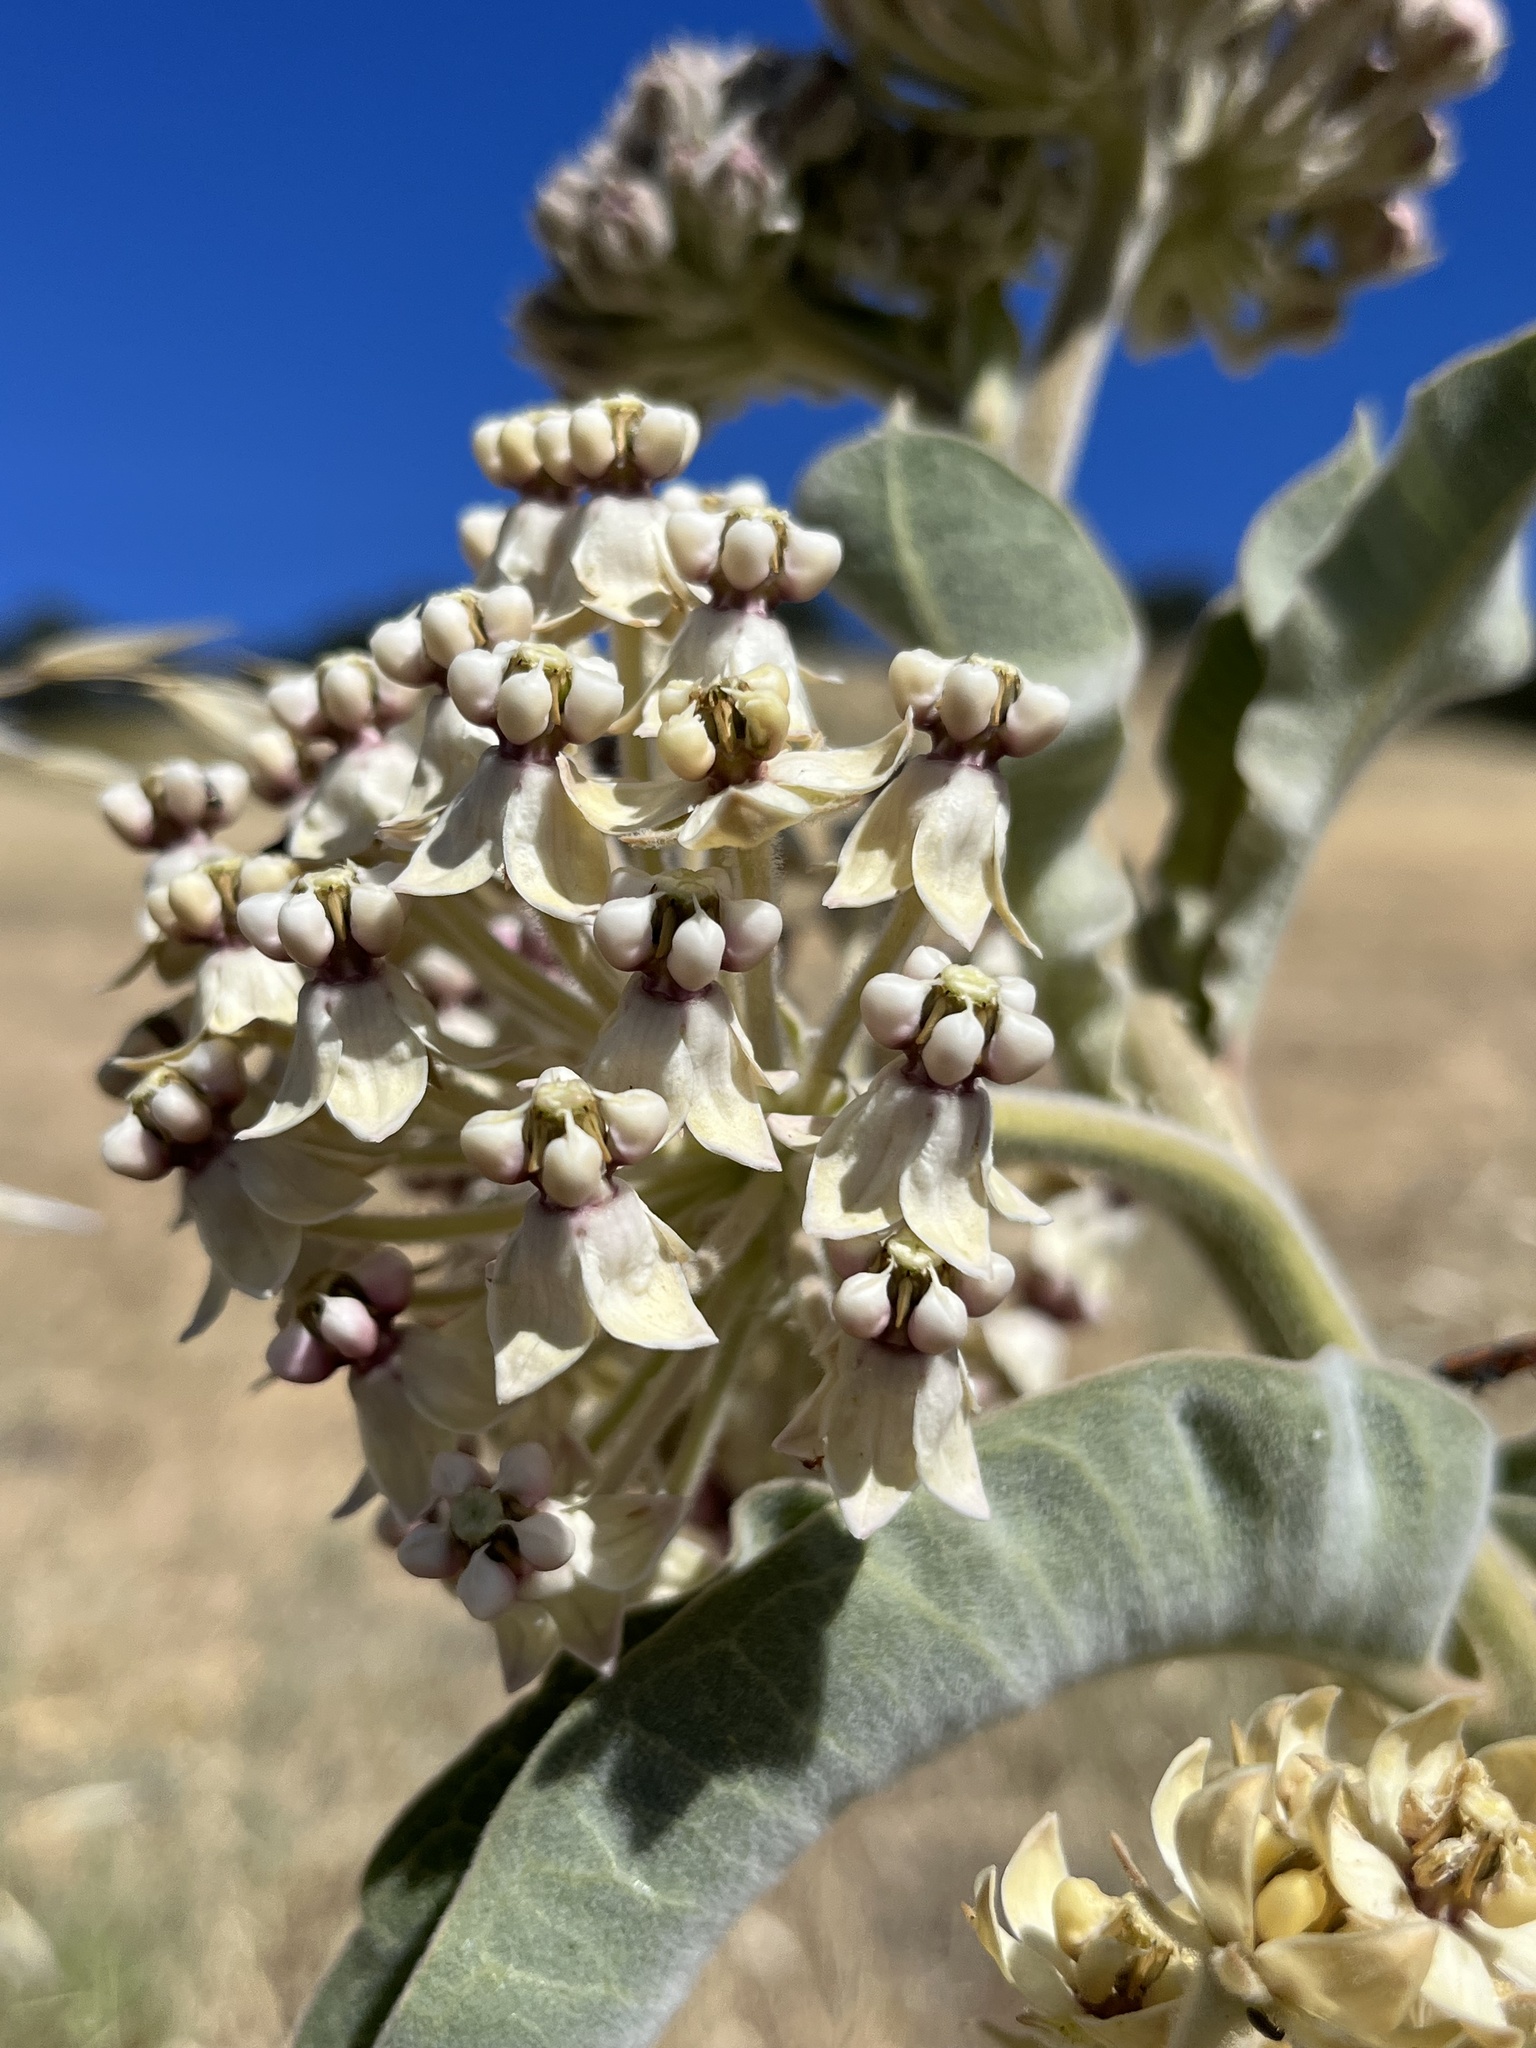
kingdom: Plantae
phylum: Tracheophyta
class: Magnoliopsida
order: Gentianales
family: Apocynaceae
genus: Asclepias
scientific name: Asclepias eriocarpa
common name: Indian milkweed
